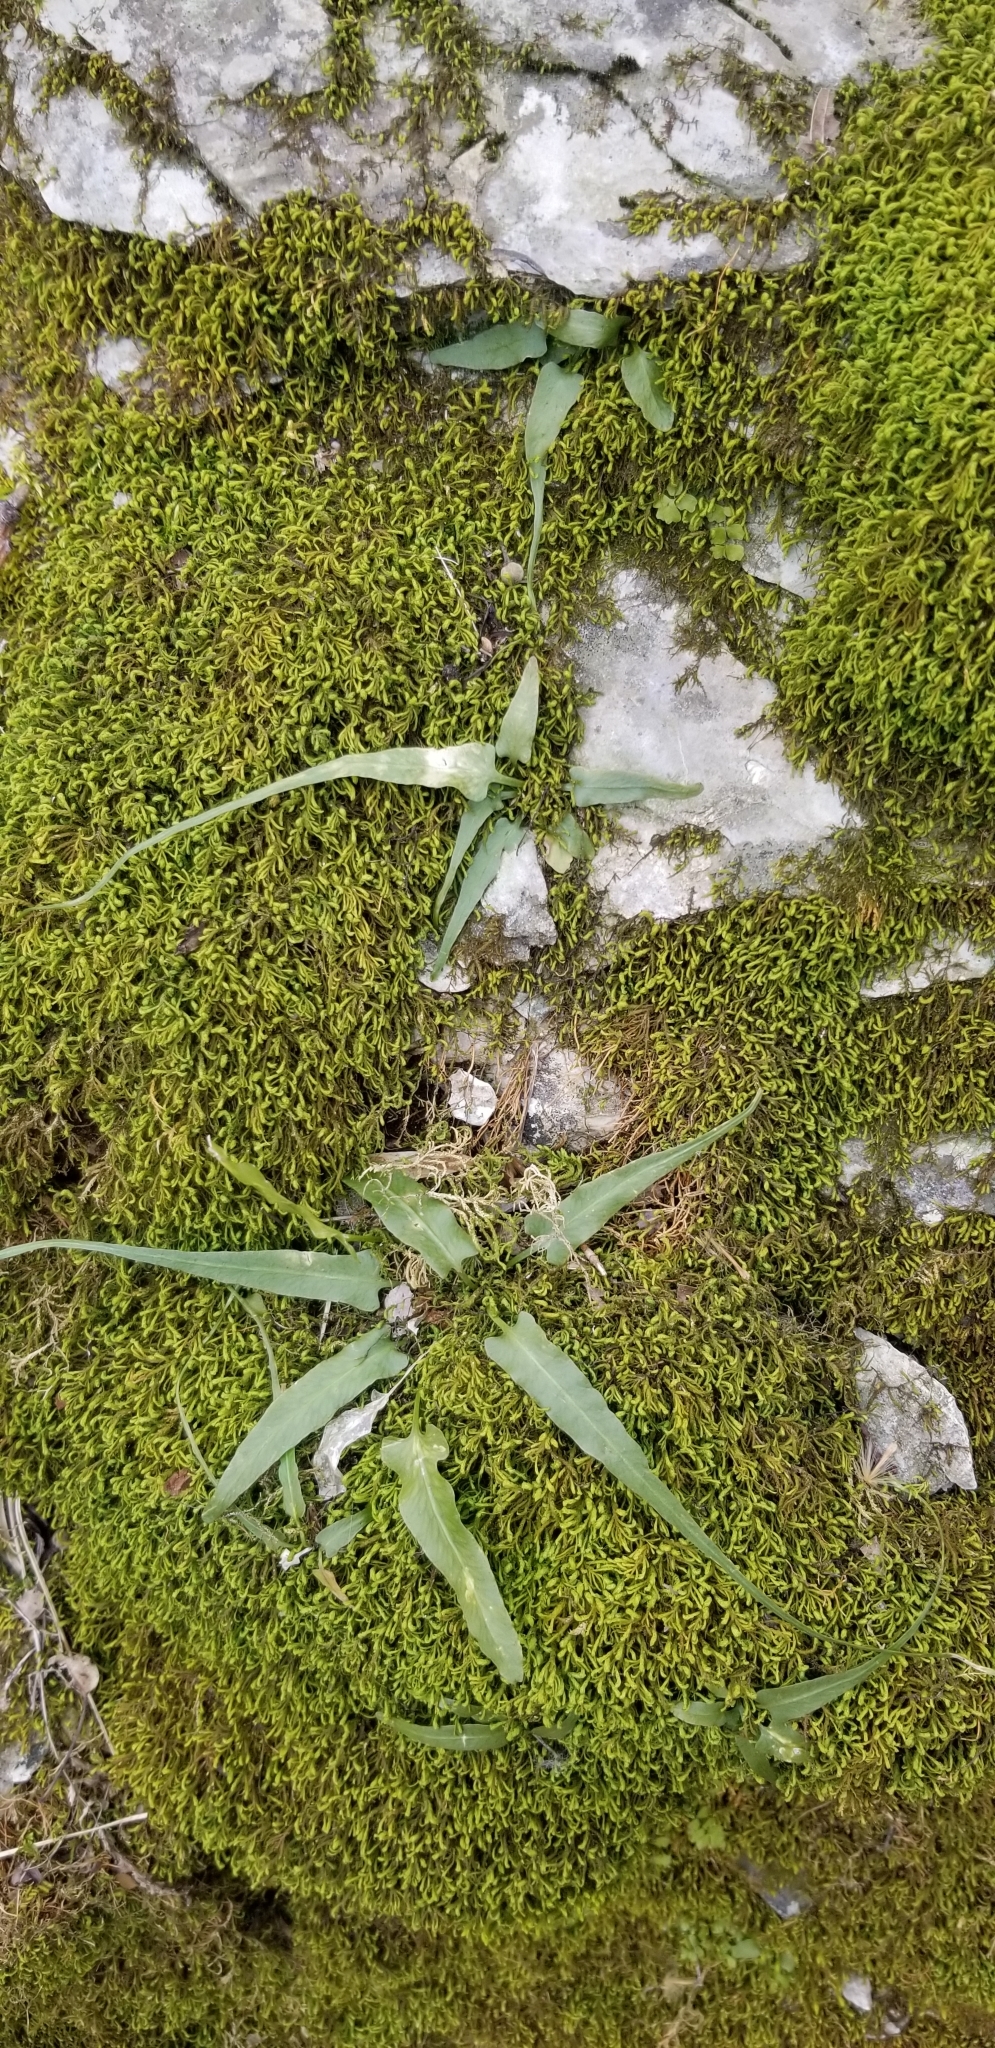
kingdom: Plantae
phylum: Tracheophyta
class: Polypodiopsida
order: Polypodiales
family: Aspleniaceae
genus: Asplenium
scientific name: Asplenium rhizophyllum
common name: Walking fern
